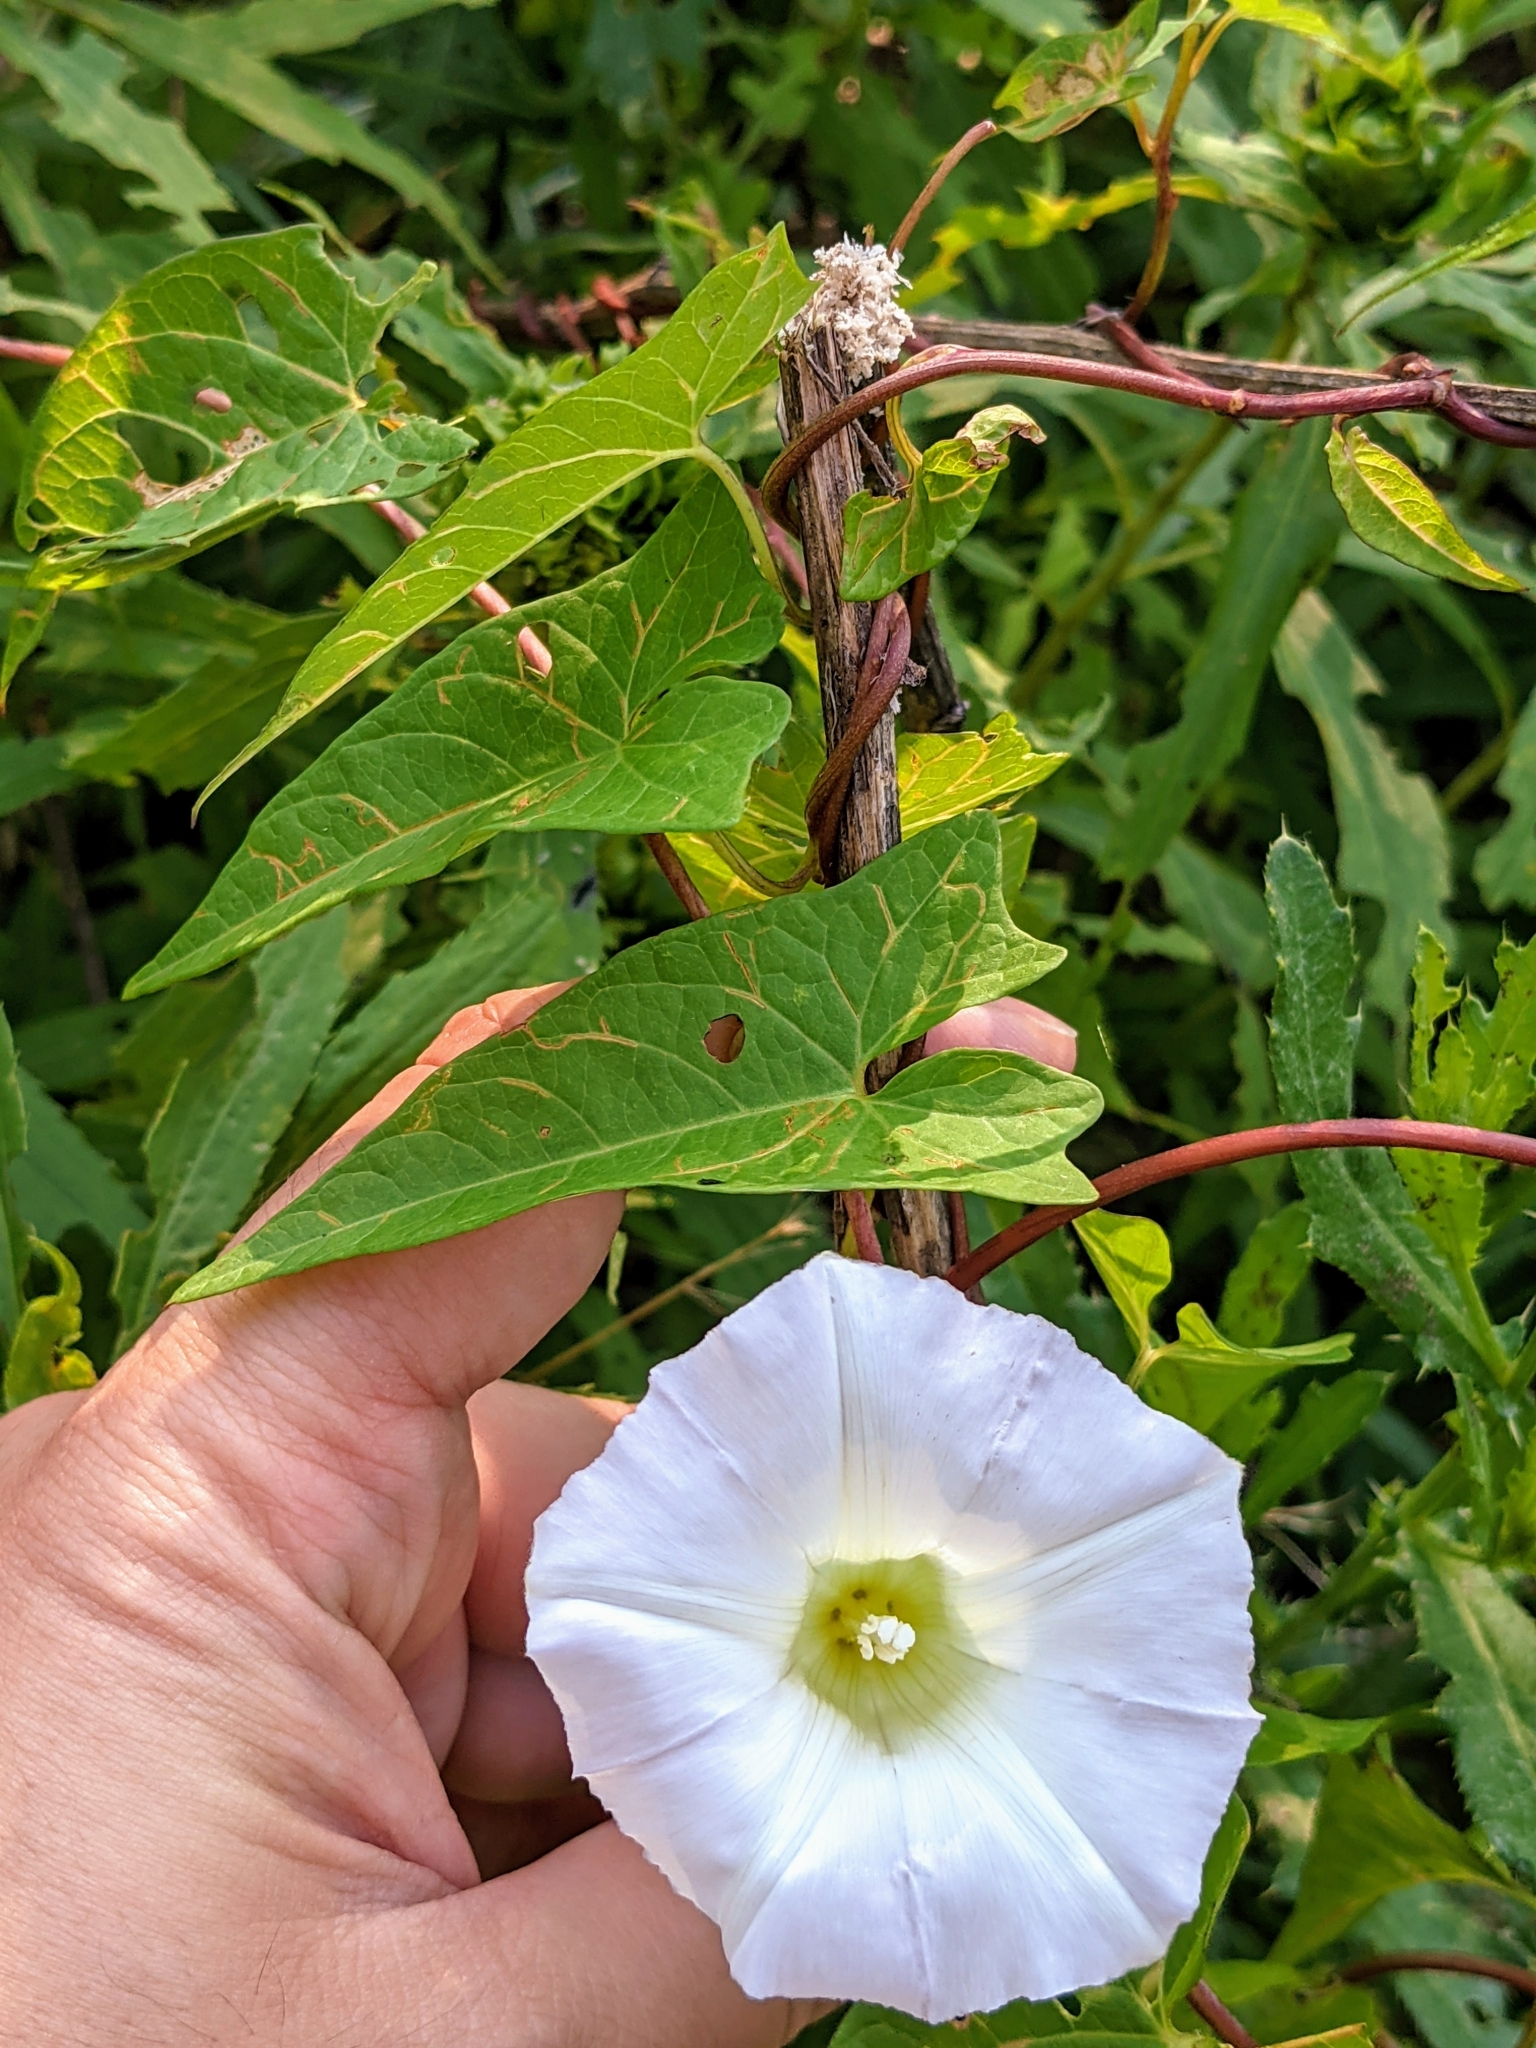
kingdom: Plantae
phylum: Tracheophyta
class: Magnoliopsida
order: Solanales
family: Convolvulaceae
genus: Calystegia
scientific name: Calystegia sepium
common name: Hedge bindweed
